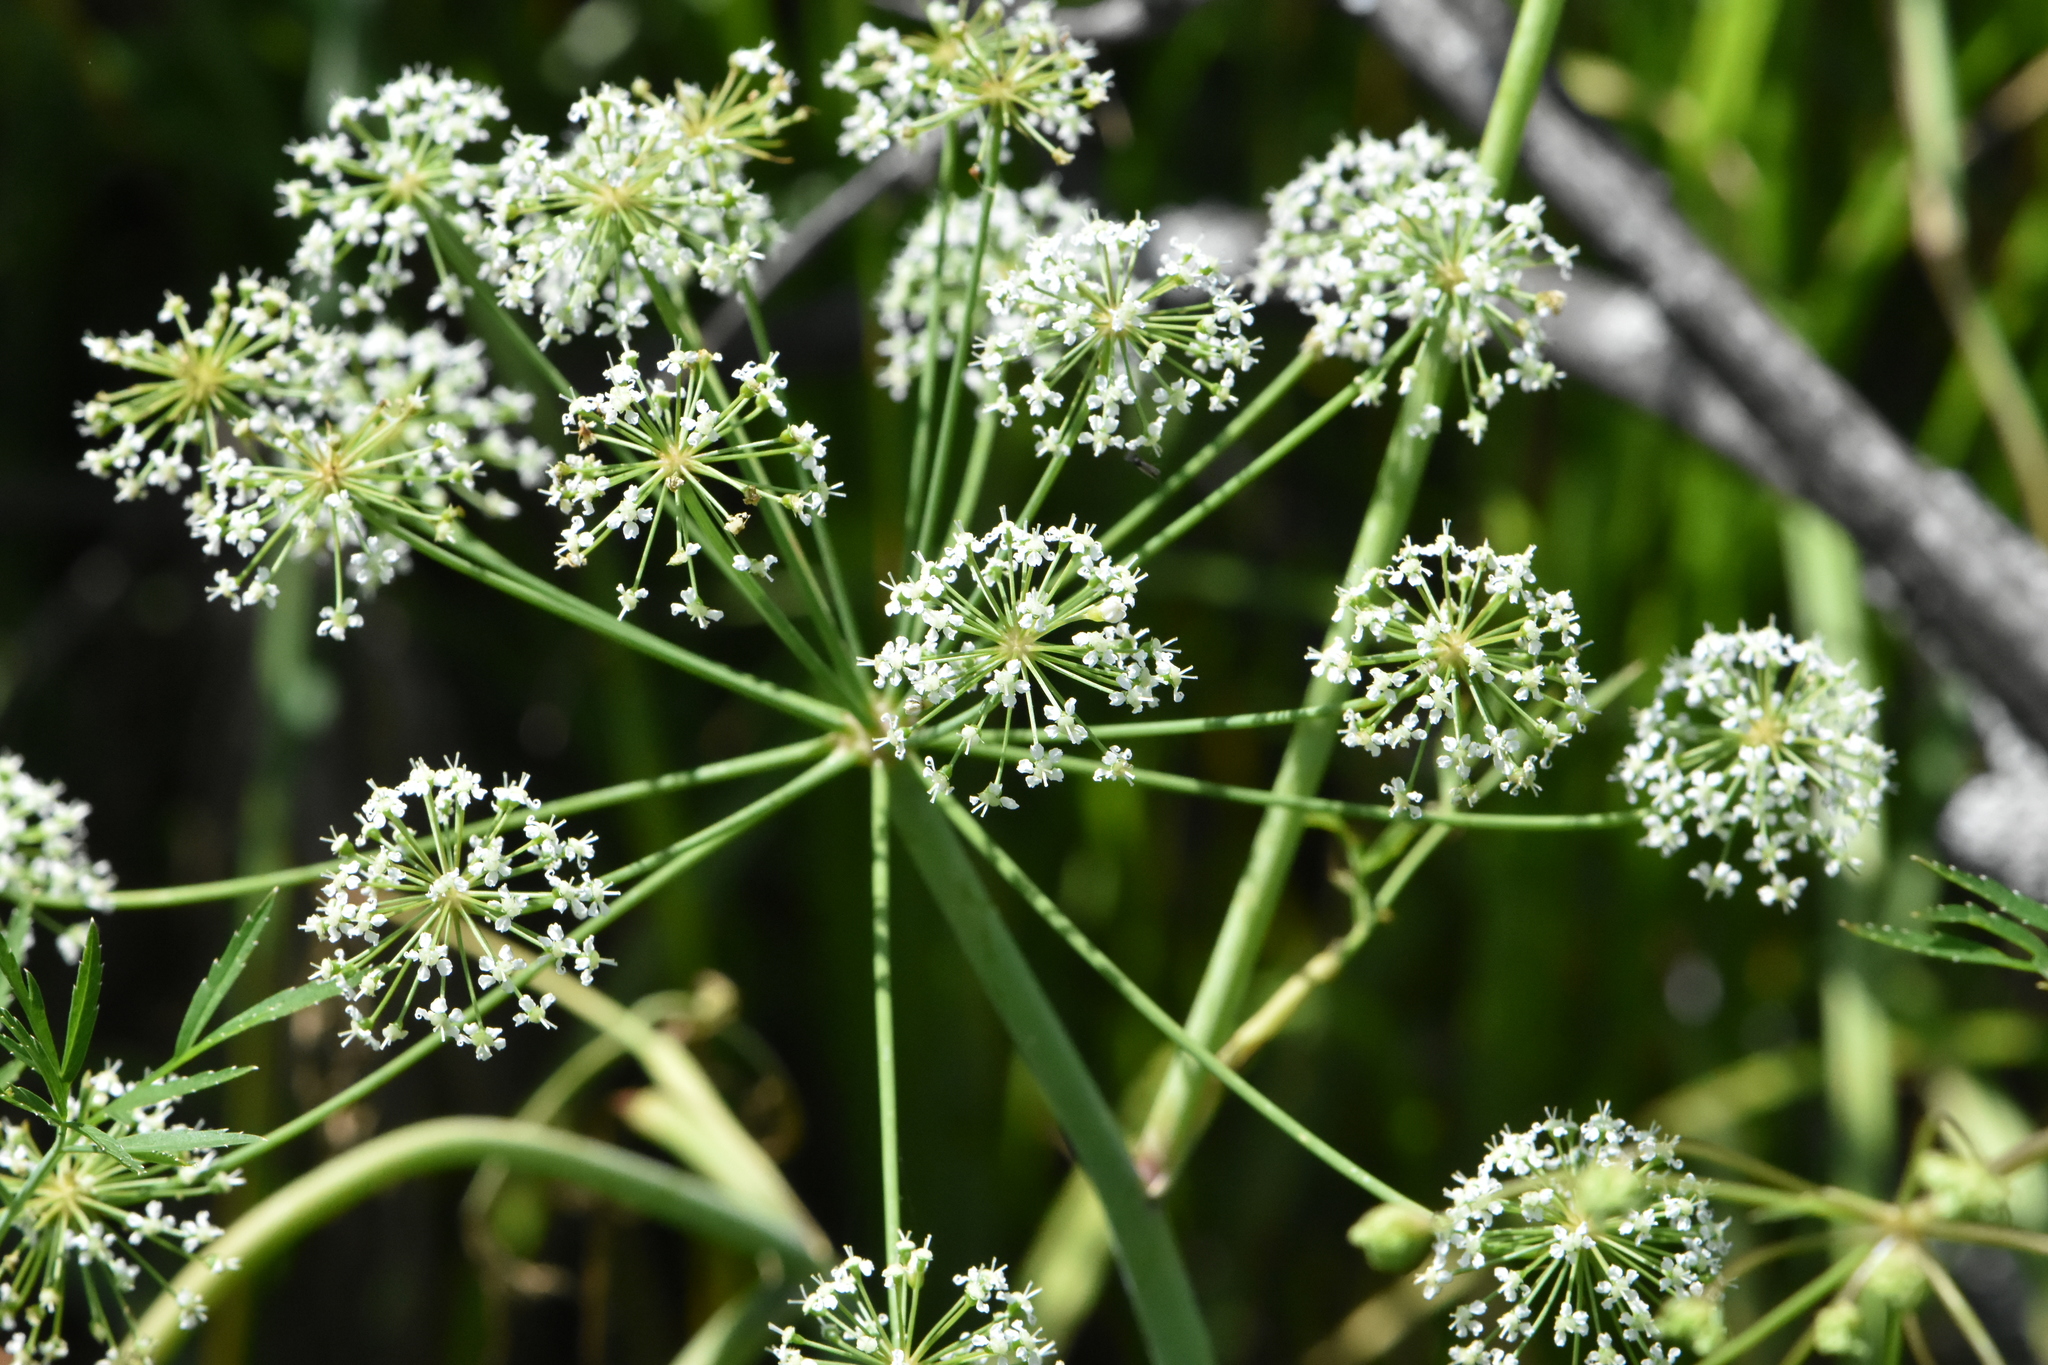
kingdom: Plantae
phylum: Tracheophyta
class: Magnoliopsida
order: Apiales
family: Apiaceae
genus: Cicuta
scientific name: Cicuta virosa
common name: Cowbane
